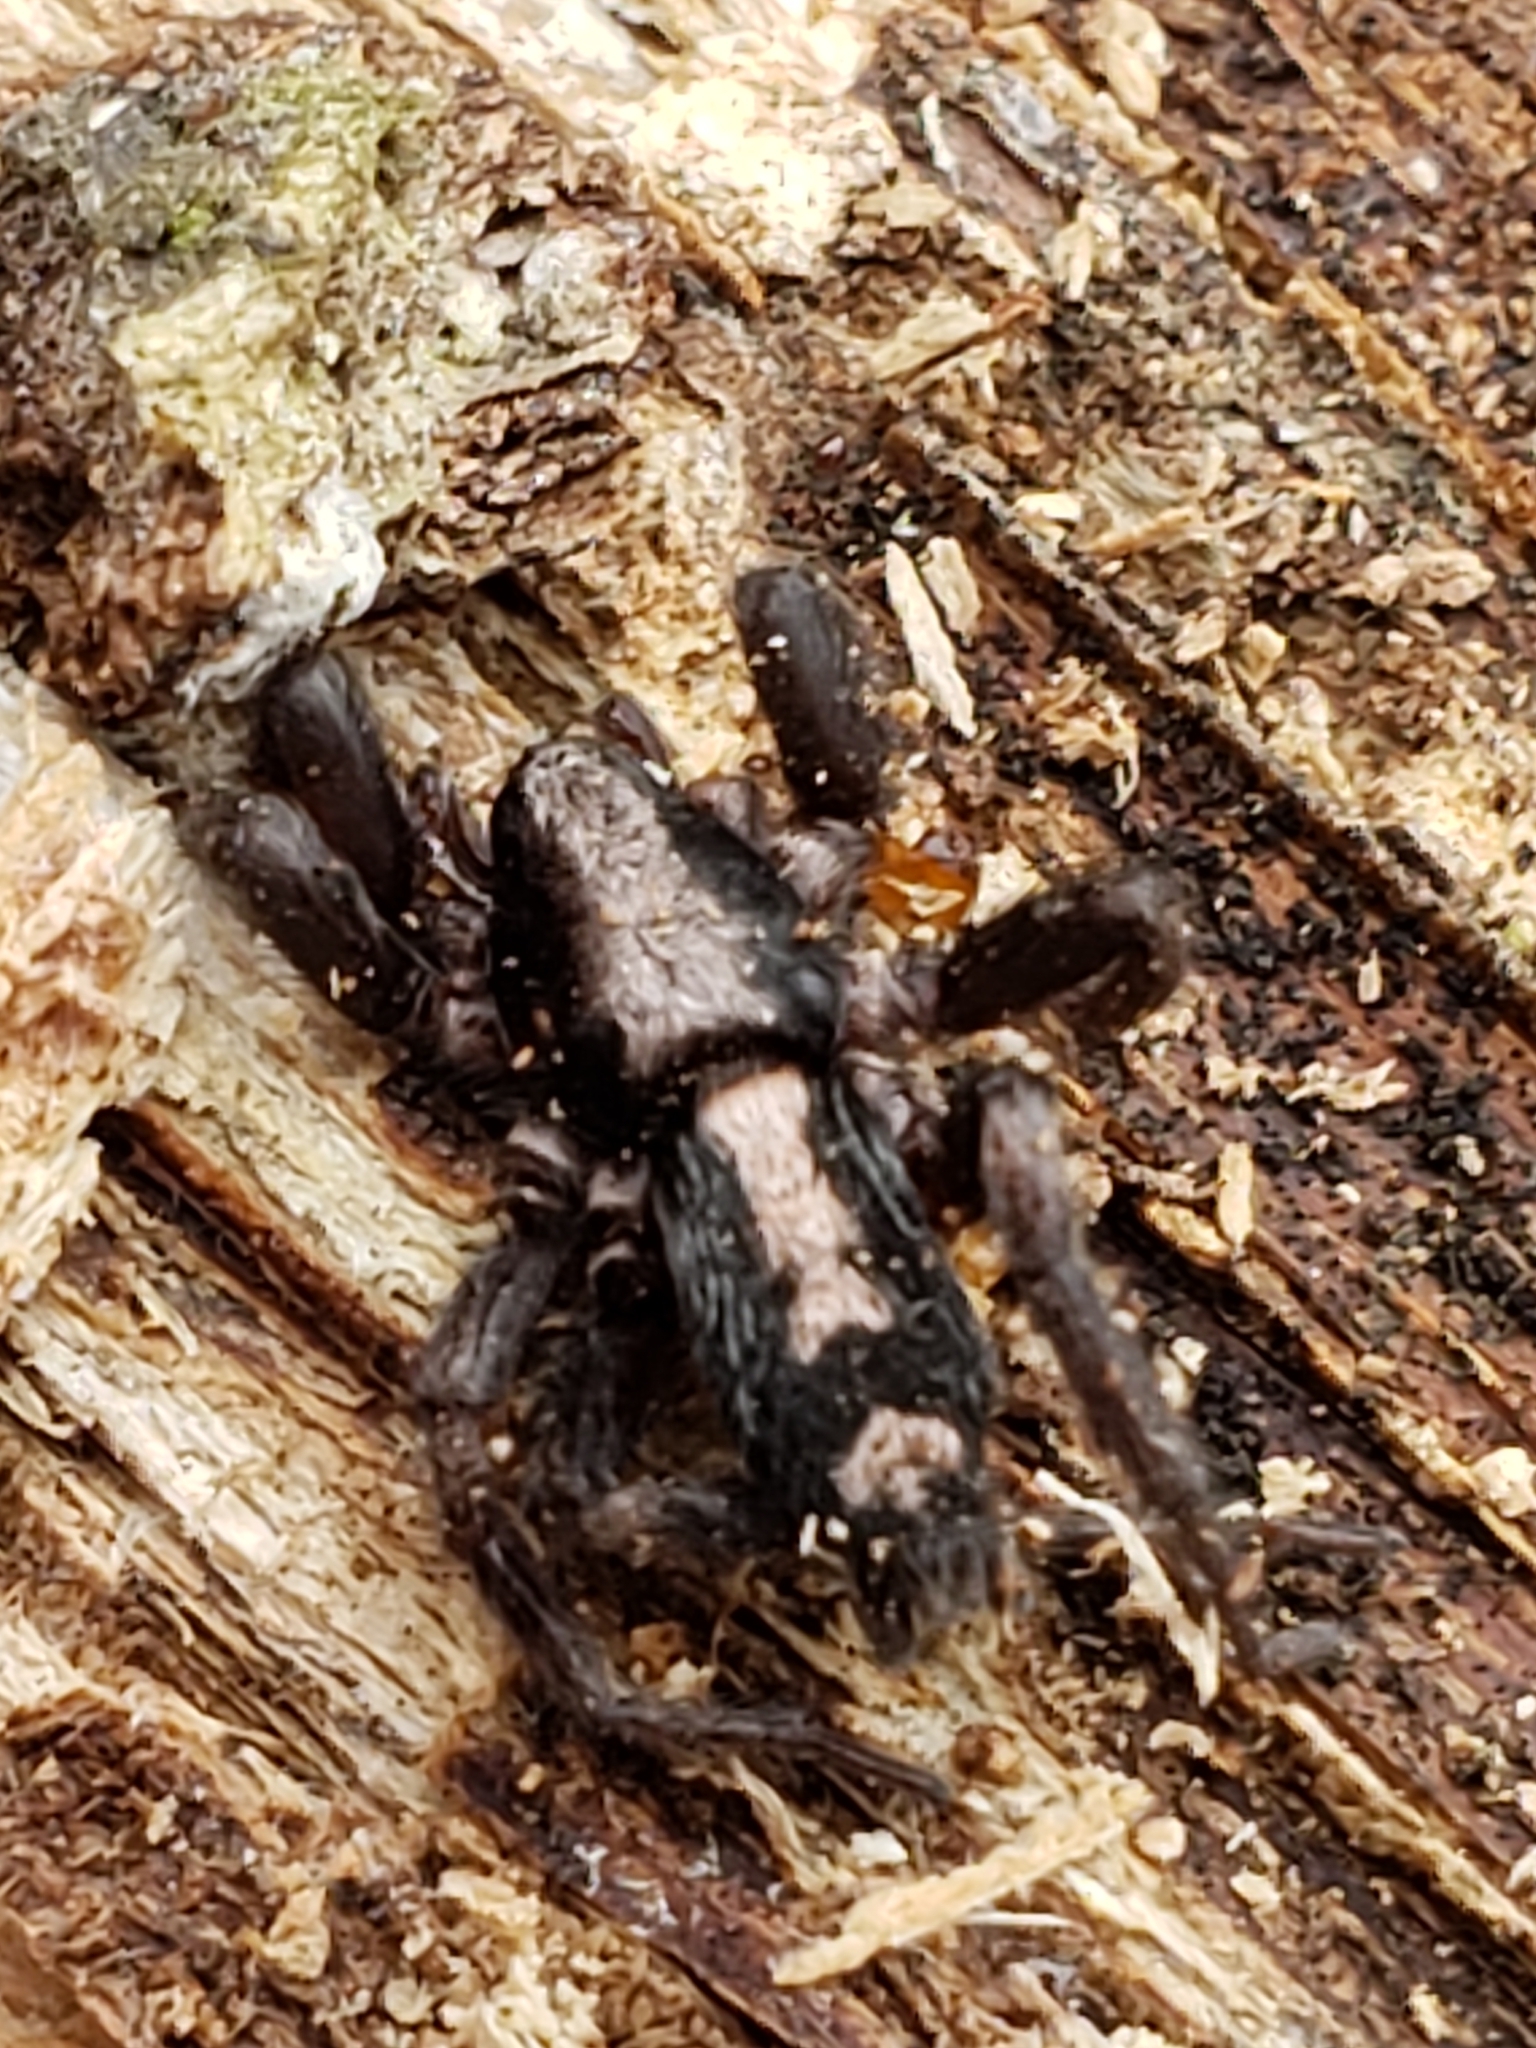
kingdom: Animalia
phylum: Arthropoda
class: Arachnida
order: Araneae
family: Gnaphosidae
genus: Herpyllus
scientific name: Herpyllus ecclesiasticus
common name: Eastern parson spider
